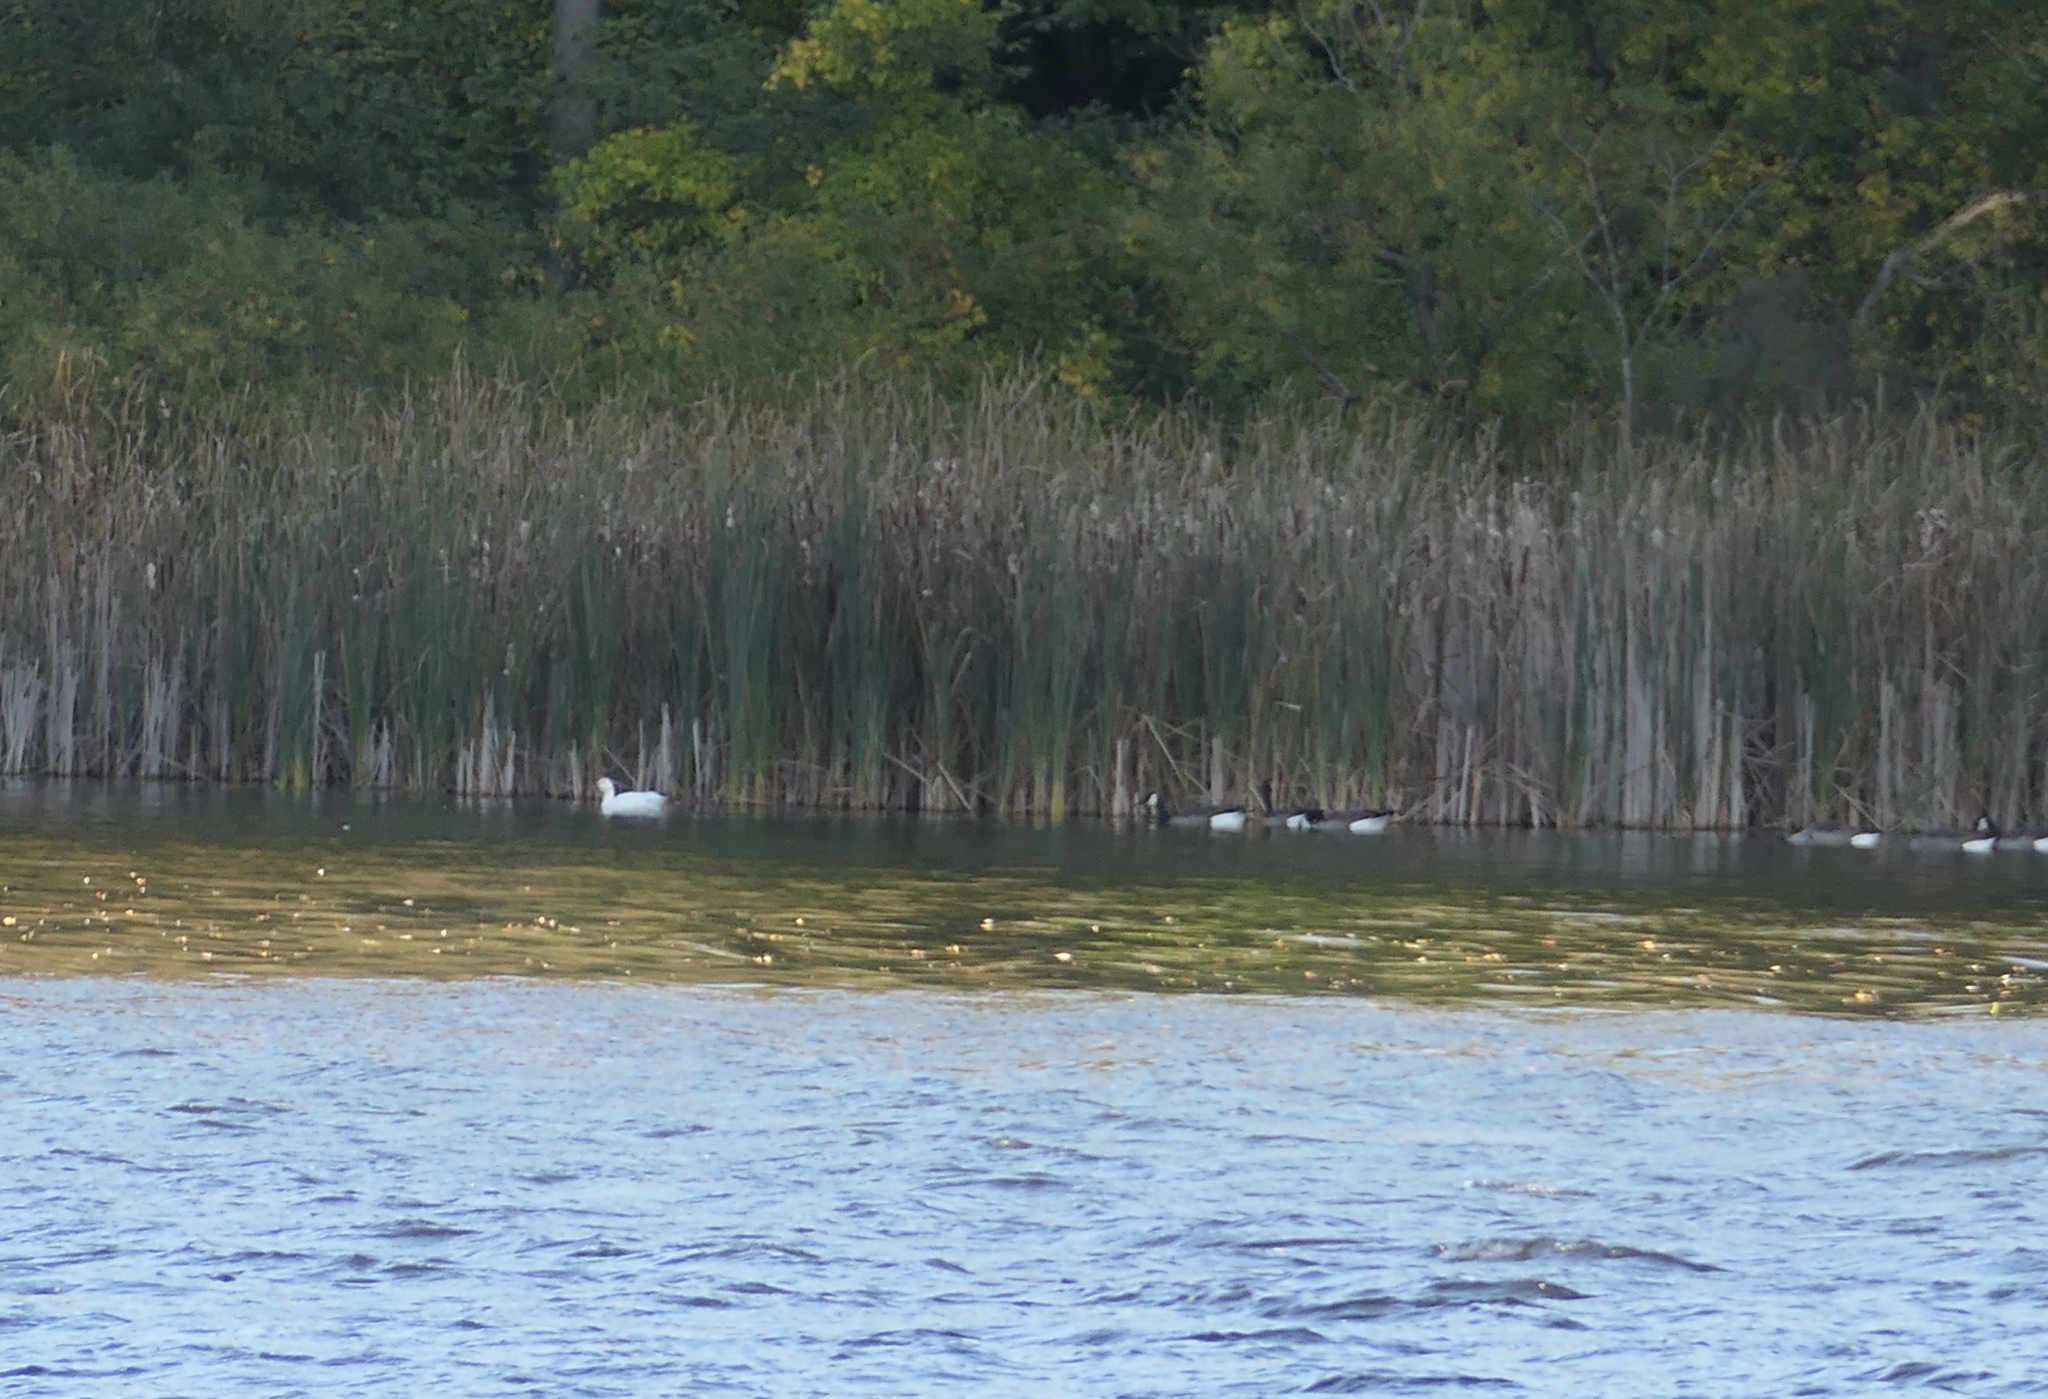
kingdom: Animalia
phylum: Chordata
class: Aves
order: Anseriformes
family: Anatidae
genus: Branta
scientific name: Branta canadensis
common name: Canada goose
